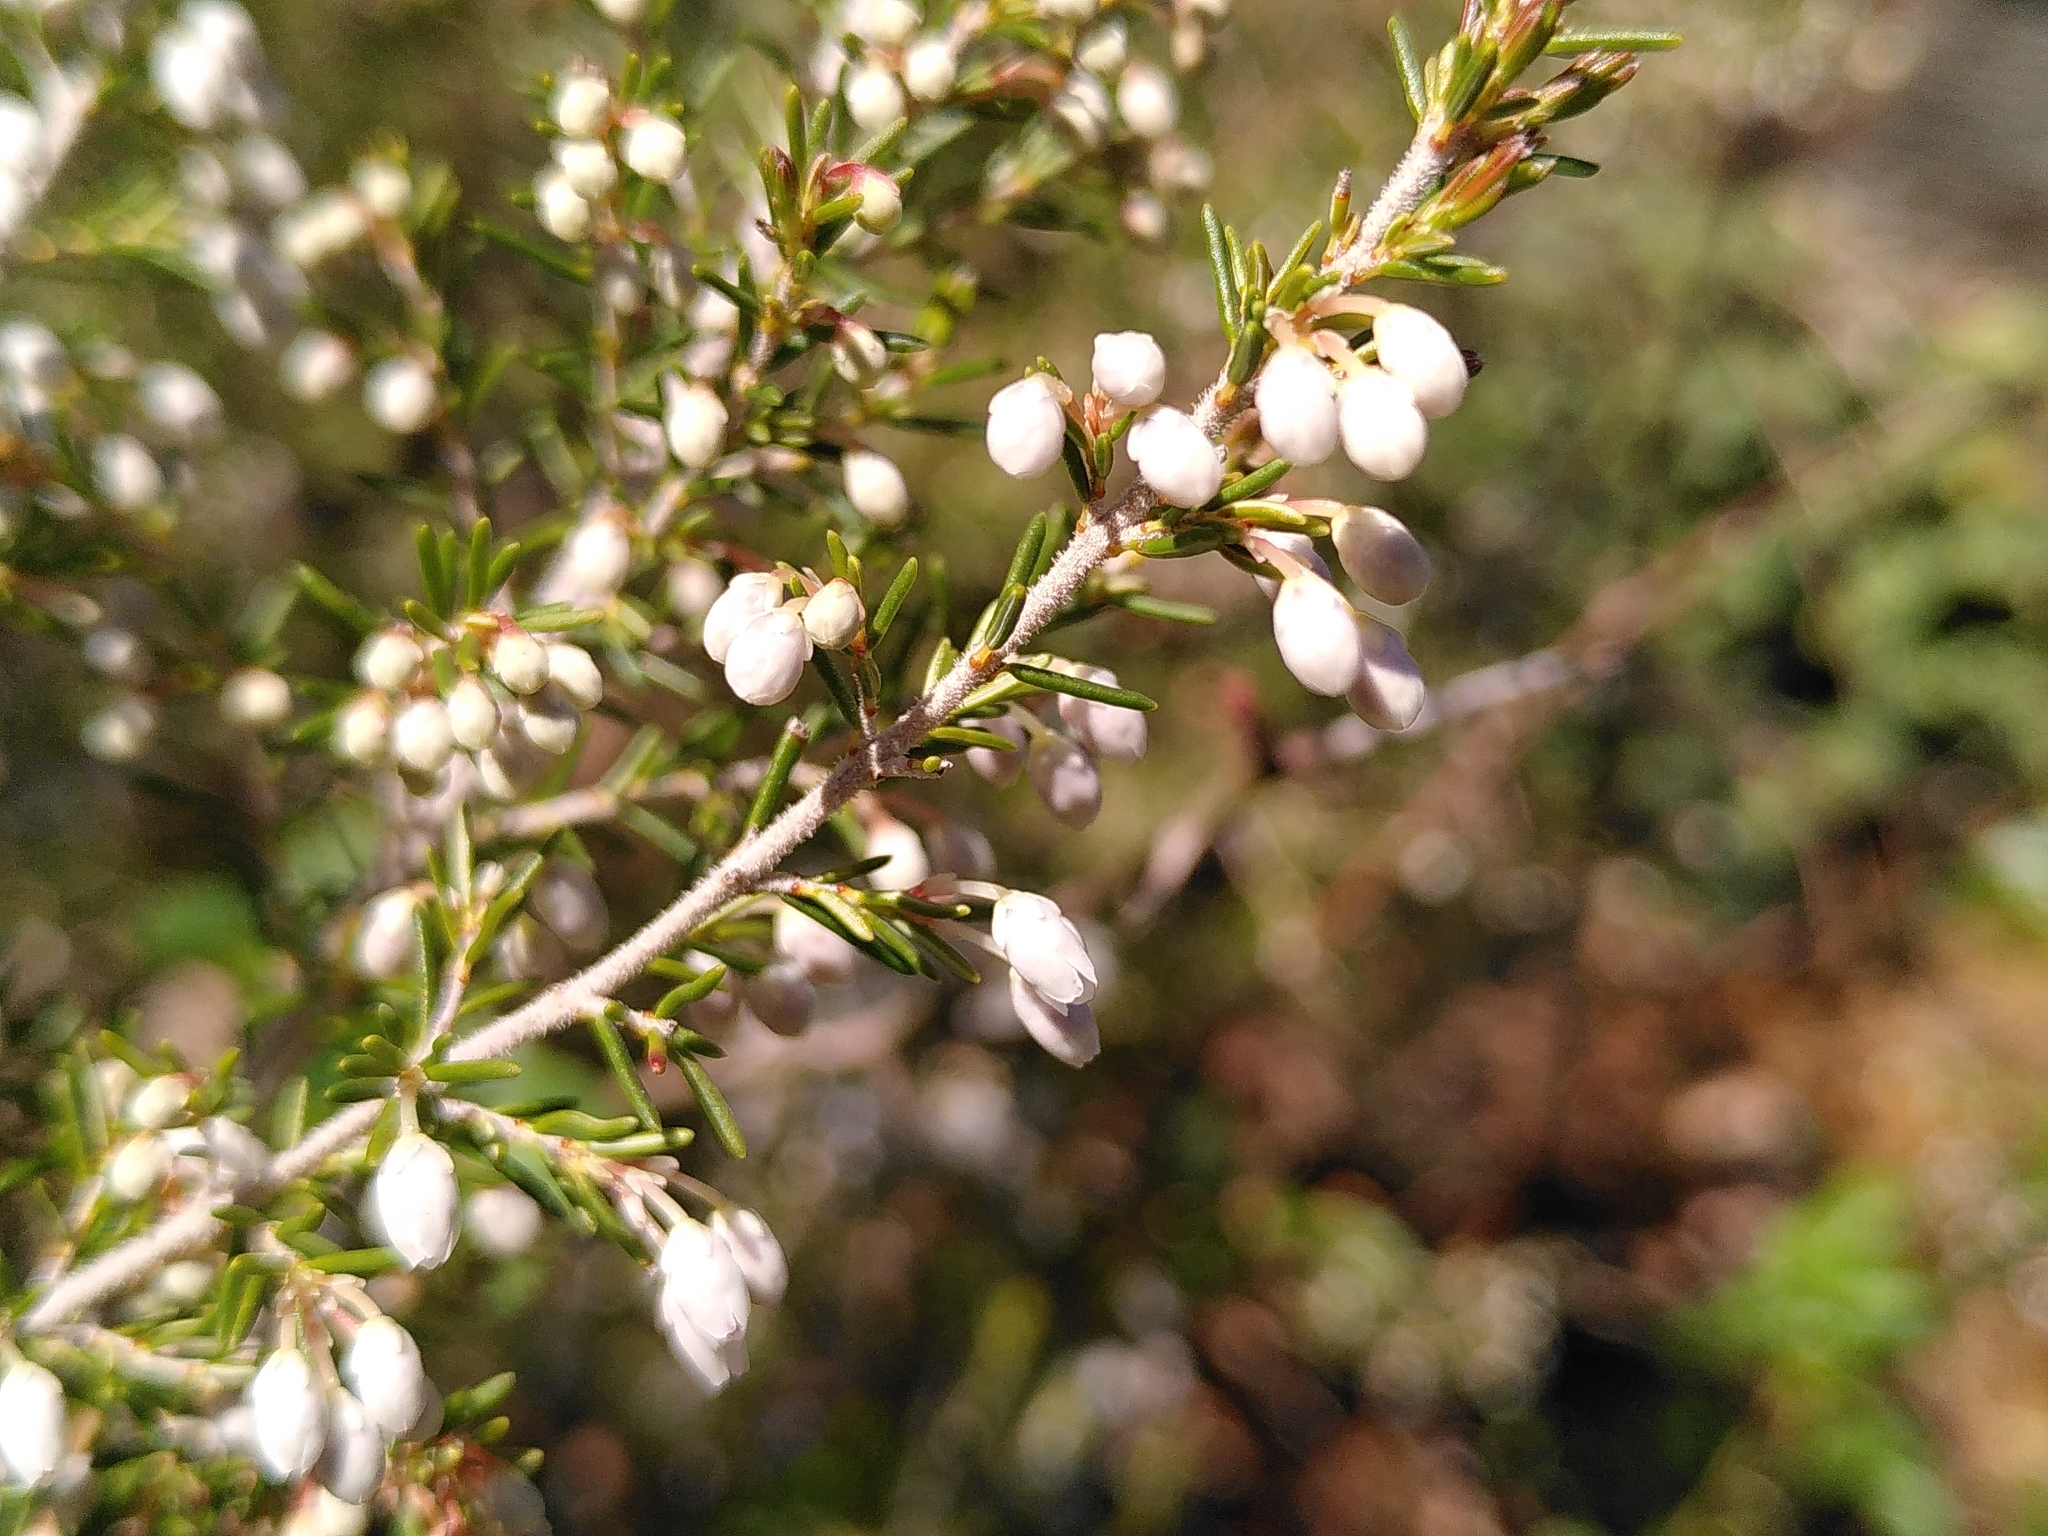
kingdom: Plantae
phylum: Tracheophyta
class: Magnoliopsida
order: Ericales
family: Ericaceae
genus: Erica
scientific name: Erica arborea
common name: Tree heath
